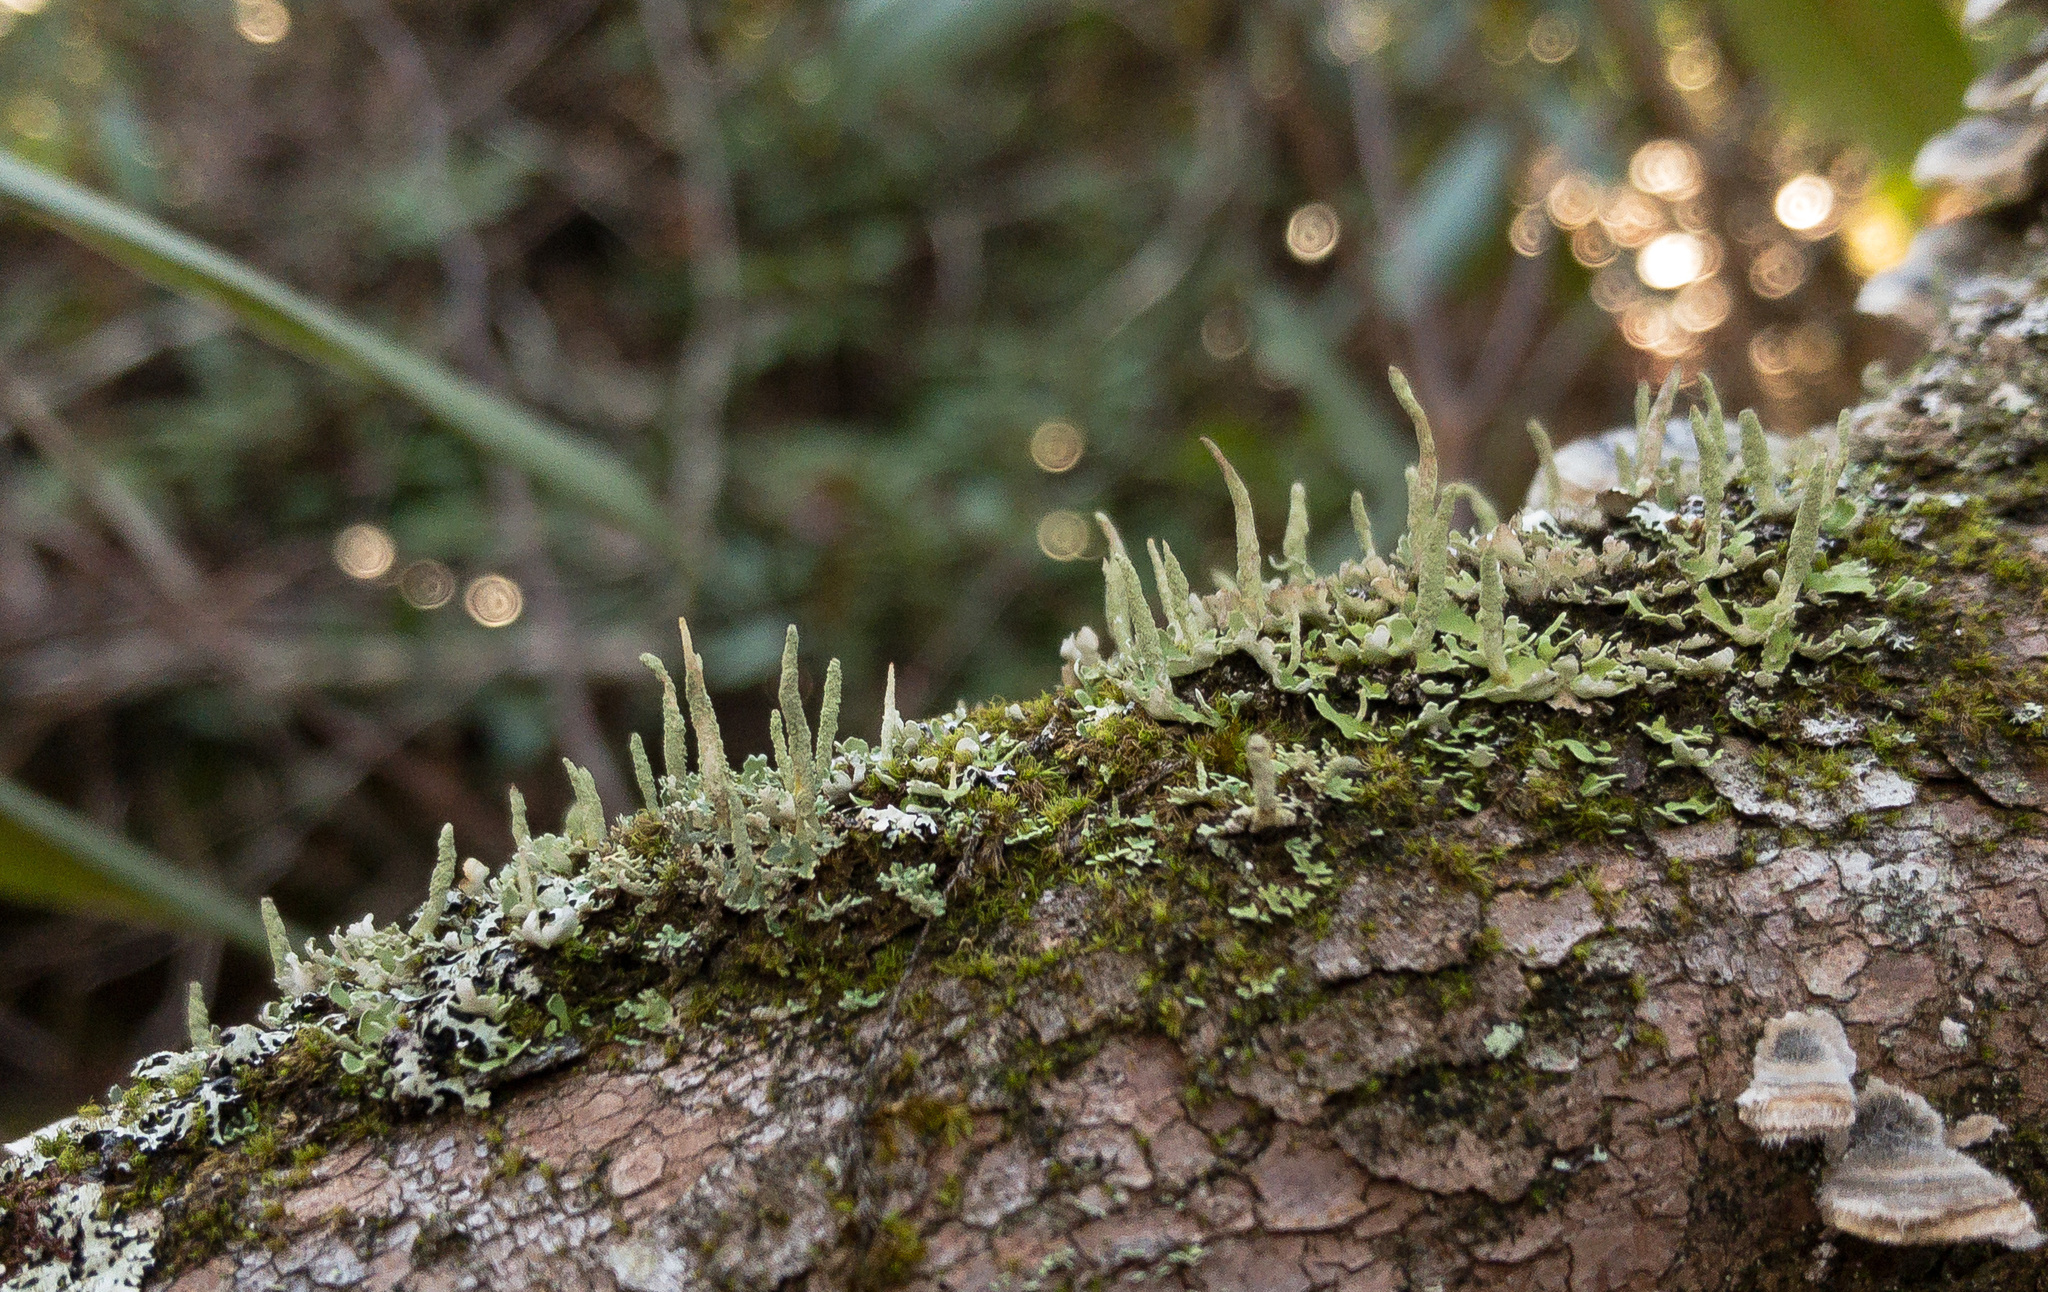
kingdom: Fungi
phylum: Ascomycota
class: Lecanoromycetes
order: Lecanorales
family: Cladoniaceae
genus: Cladonia
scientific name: Cladonia ochrochlora
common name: Smooth-footed powderhorn
